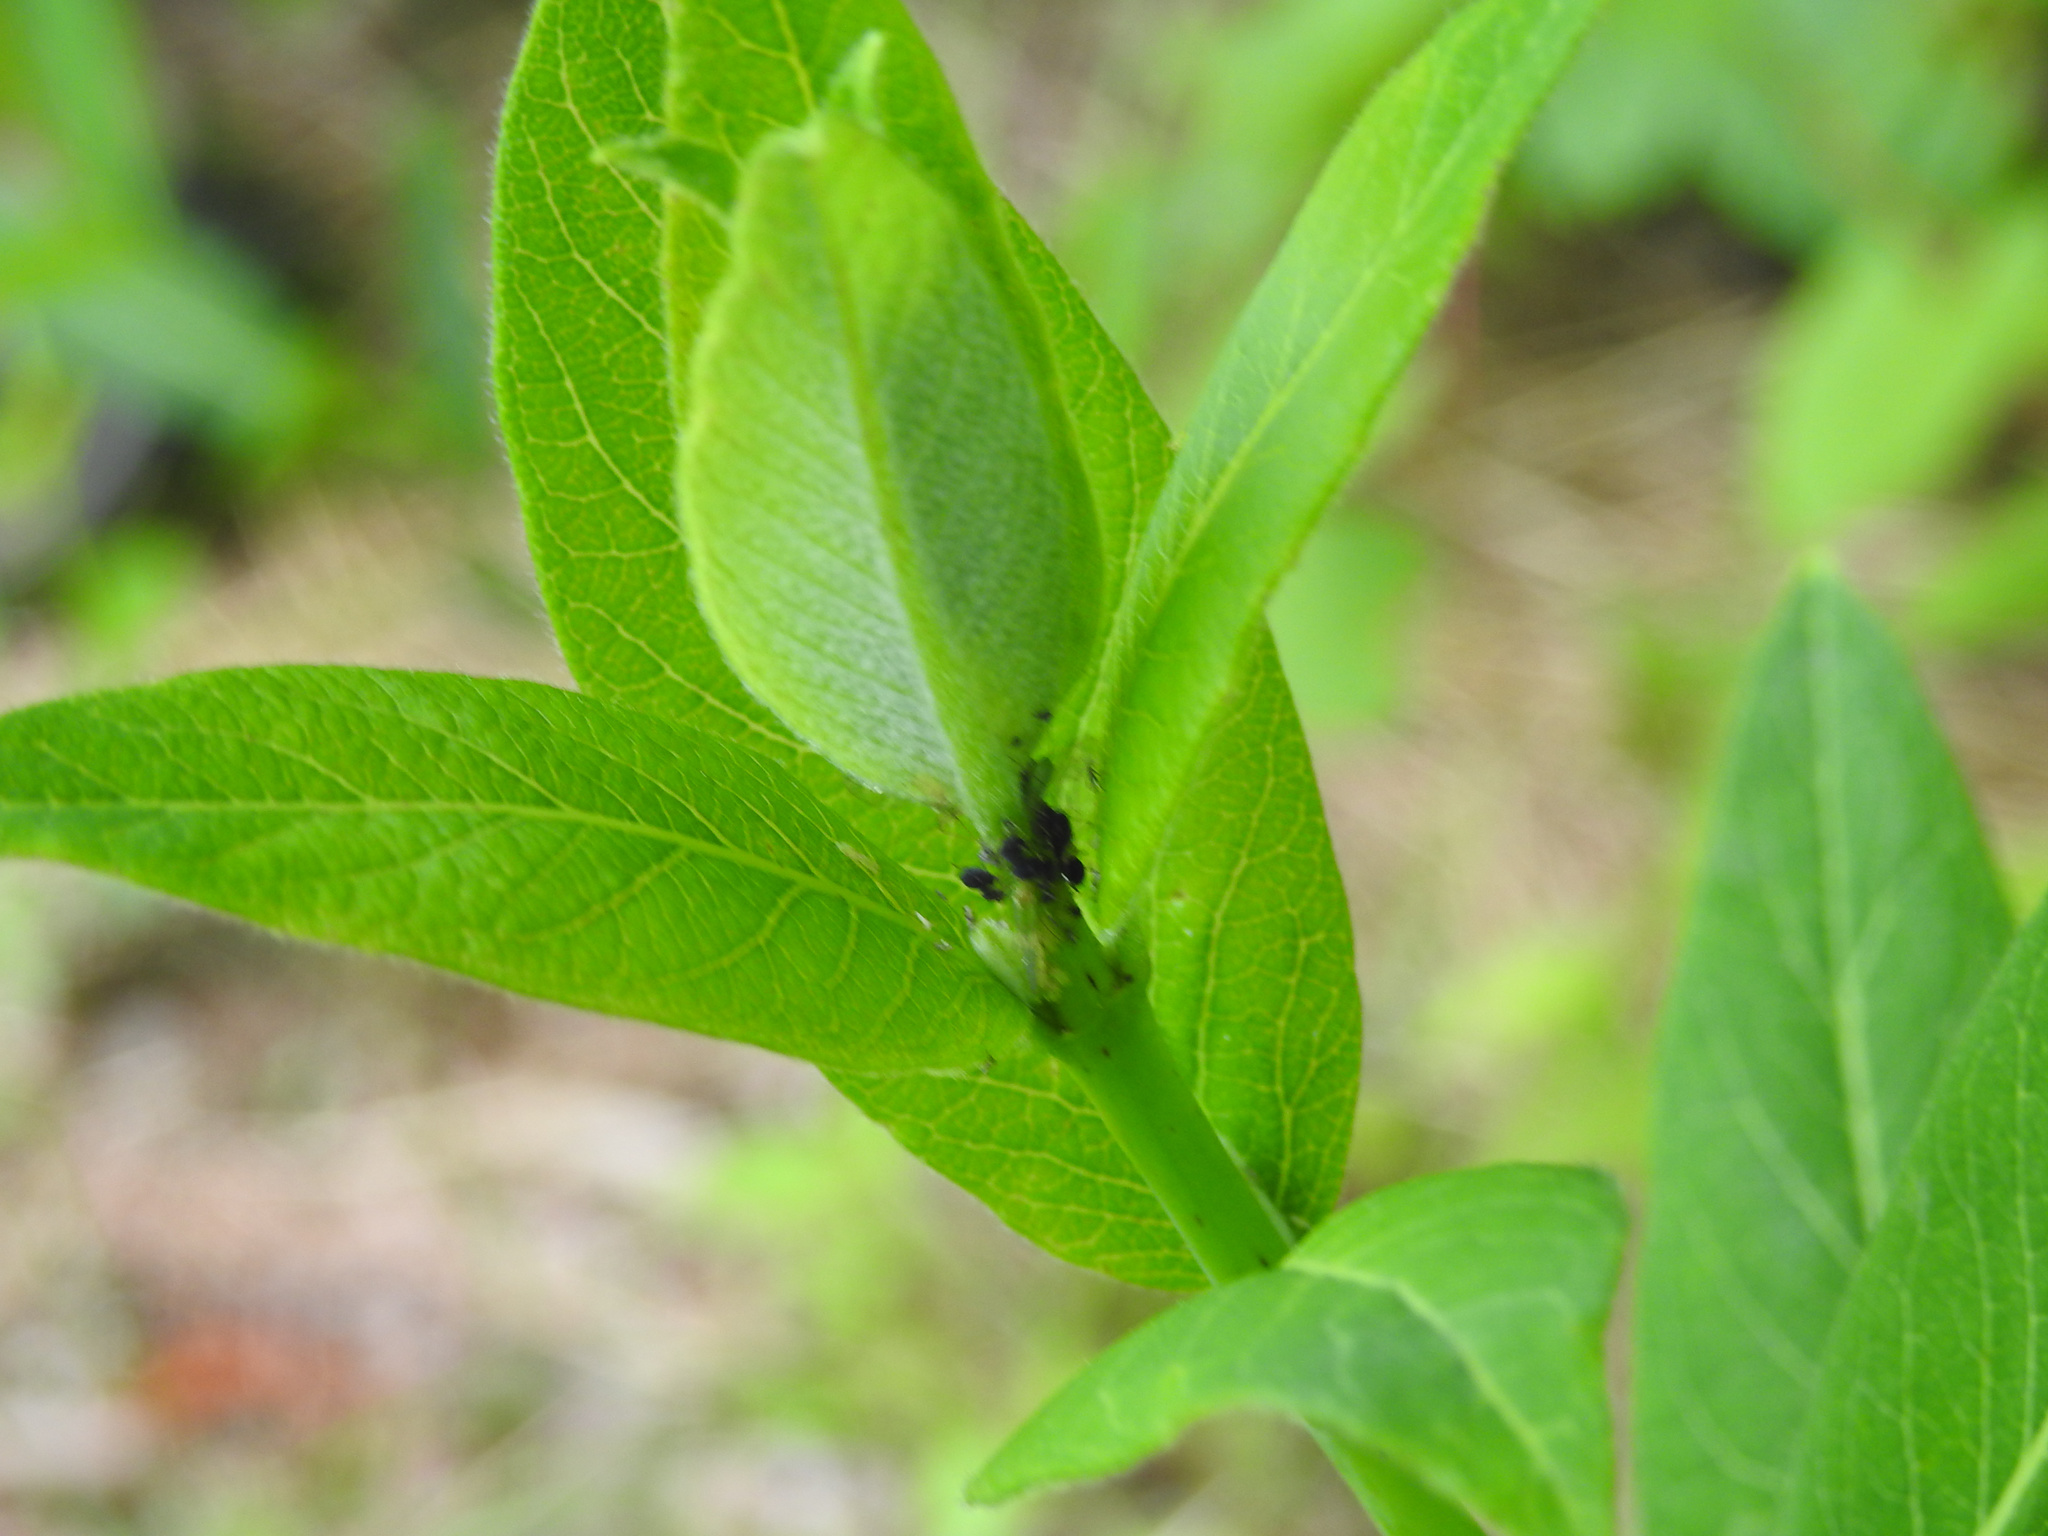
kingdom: Plantae
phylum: Tracheophyta
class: Magnoliopsida
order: Gentianales
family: Apocynaceae
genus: Apocynum
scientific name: Apocynum cannabinum
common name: Hemp dogbane
